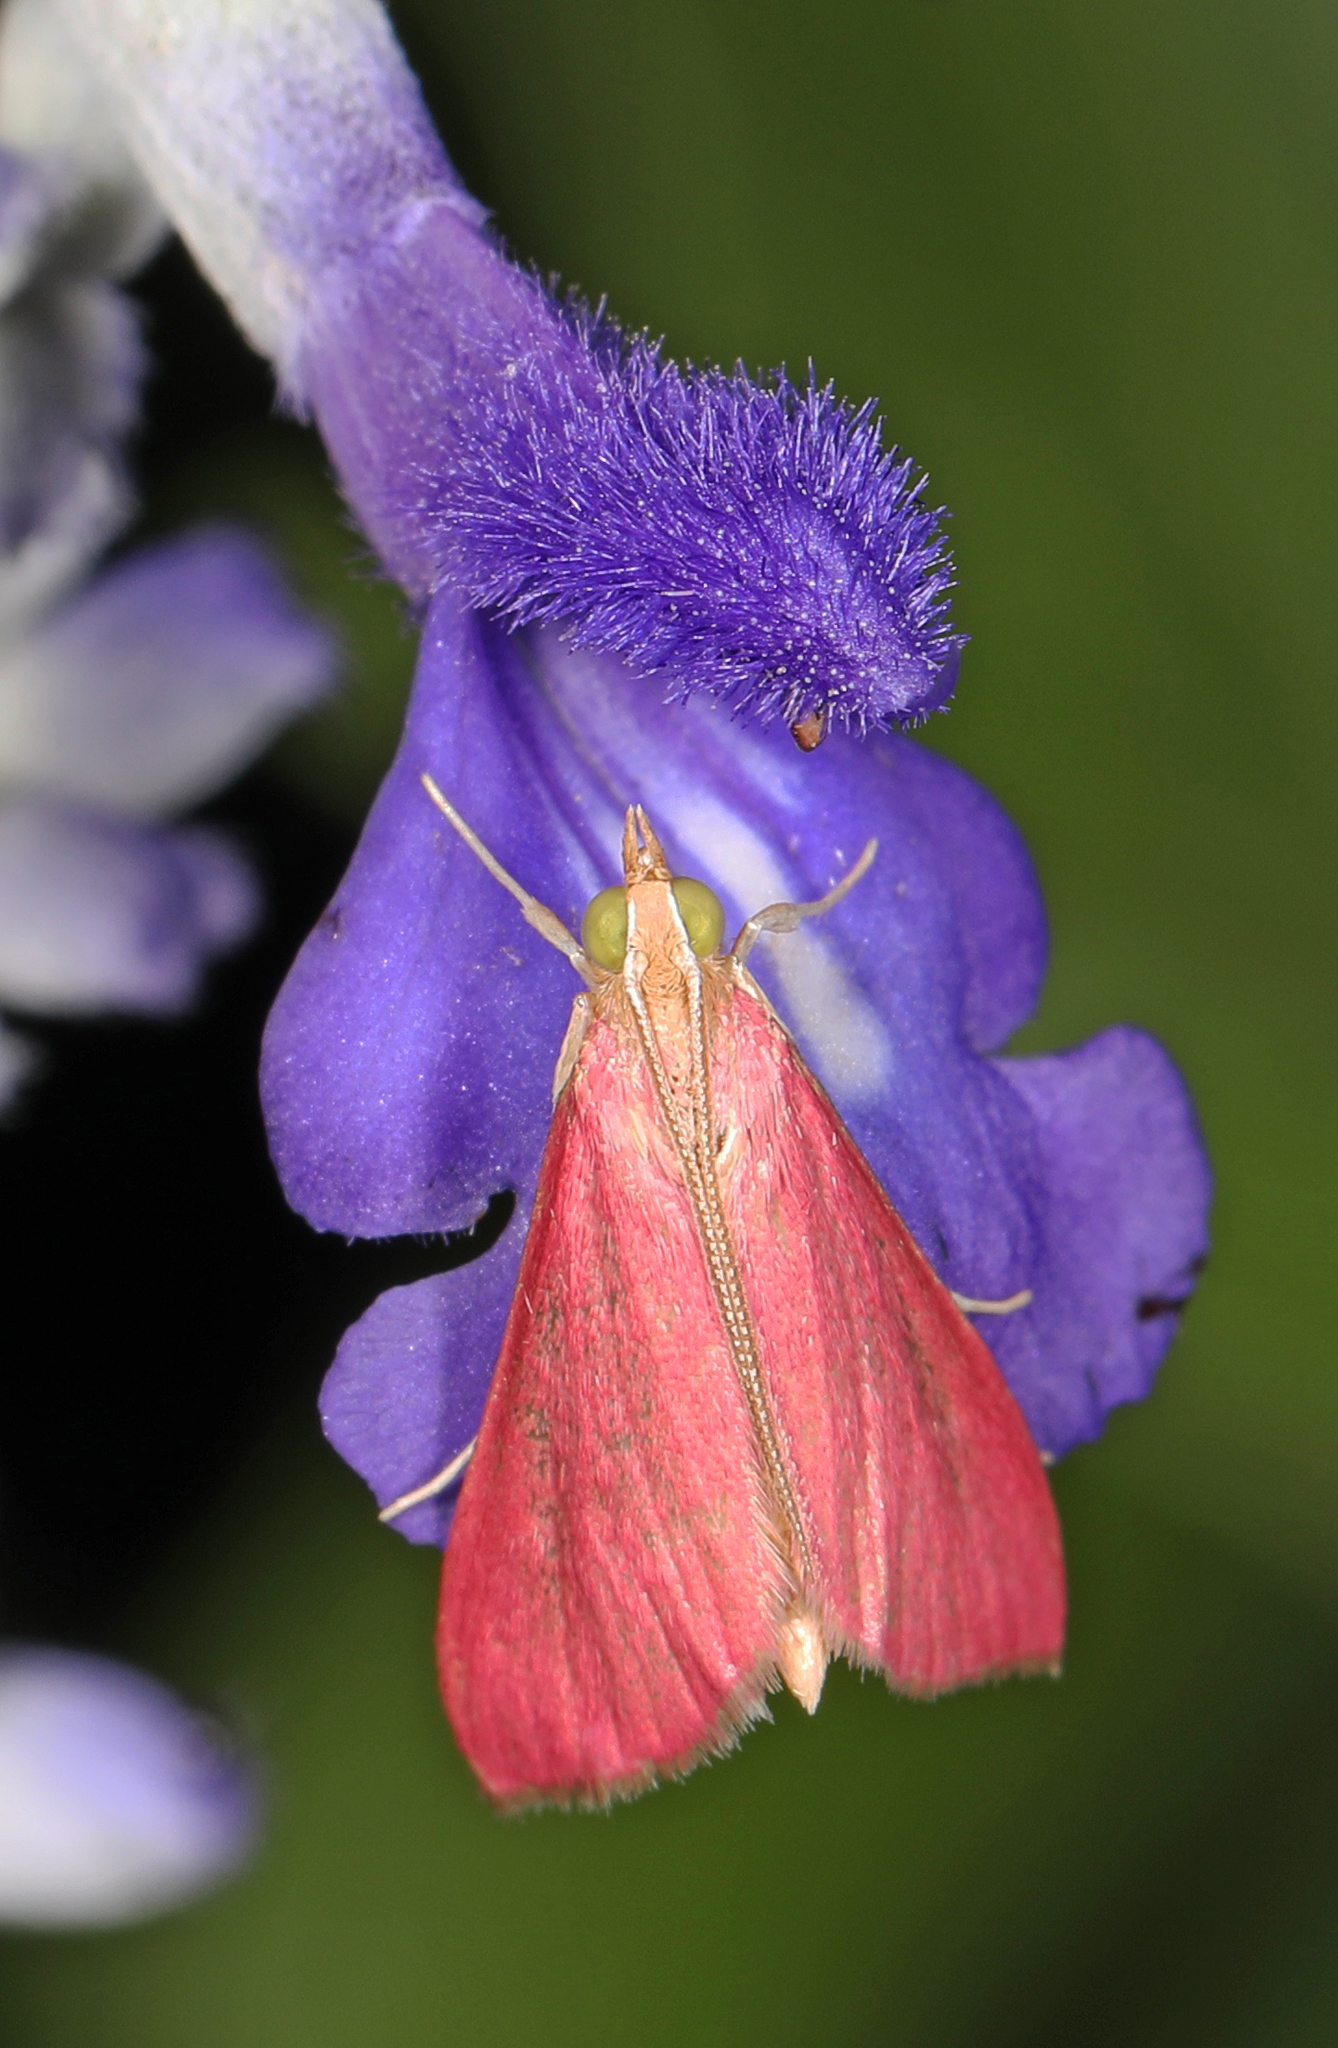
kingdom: Animalia
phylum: Arthropoda
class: Insecta
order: Lepidoptera
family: Crambidae
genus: Pyrausta
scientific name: Pyrausta inornatalis
